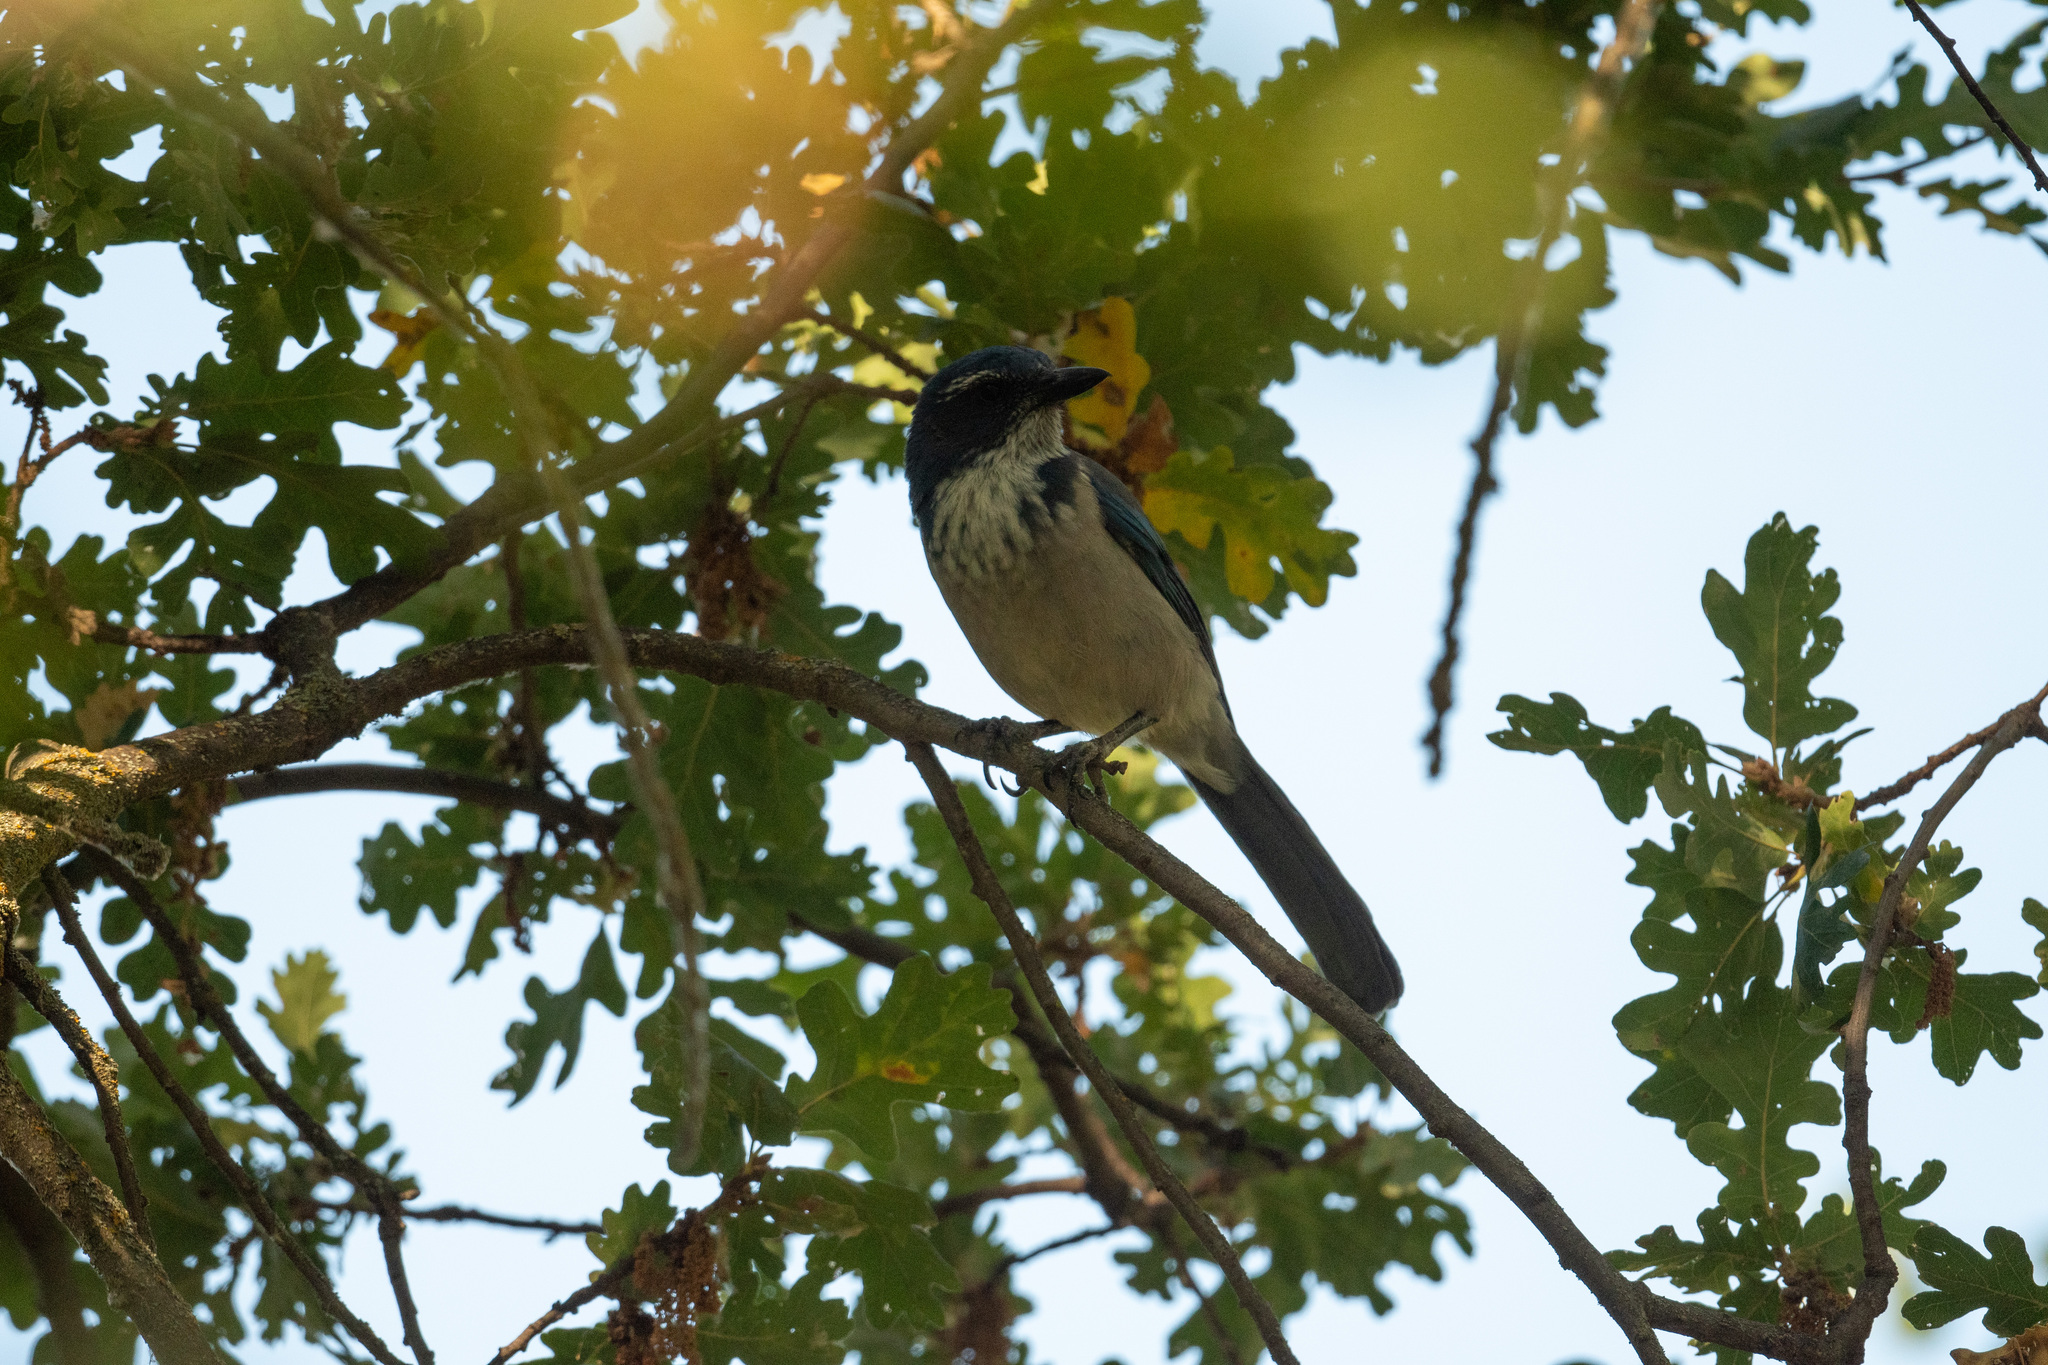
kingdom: Animalia
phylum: Chordata
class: Aves
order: Passeriformes
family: Corvidae
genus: Aphelocoma
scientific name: Aphelocoma californica
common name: California scrub-jay
